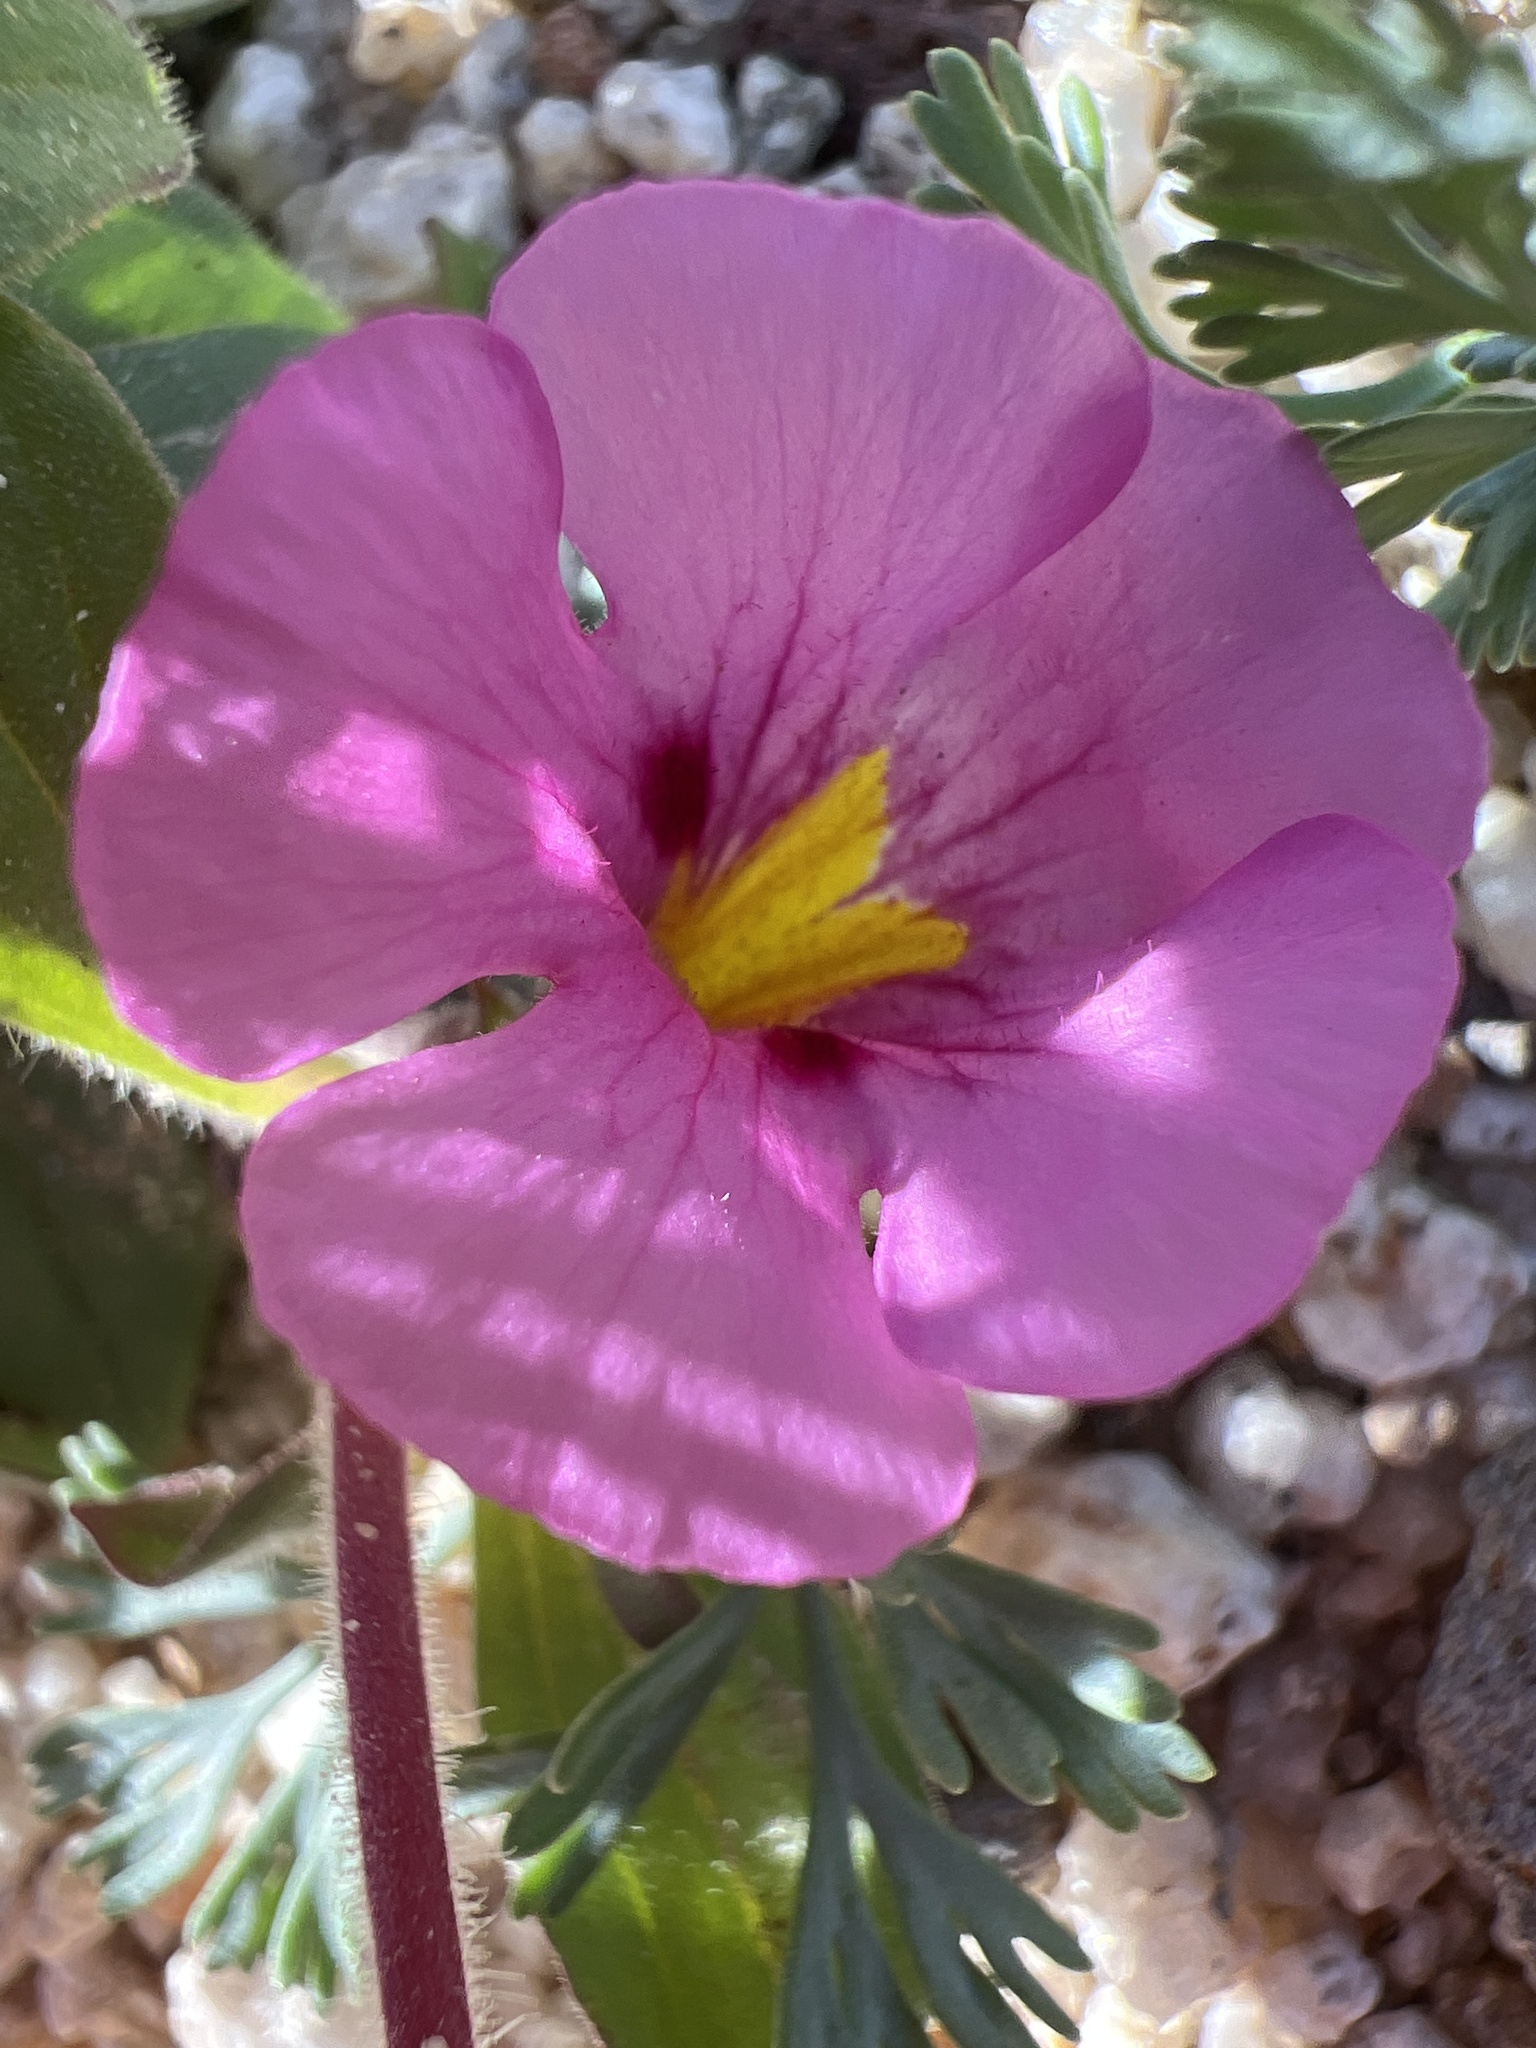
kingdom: Plantae
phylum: Tracheophyta
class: Magnoliopsida
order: Lamiales
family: Phrymaceae
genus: Diplacus
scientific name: Diplacus bigelovii
